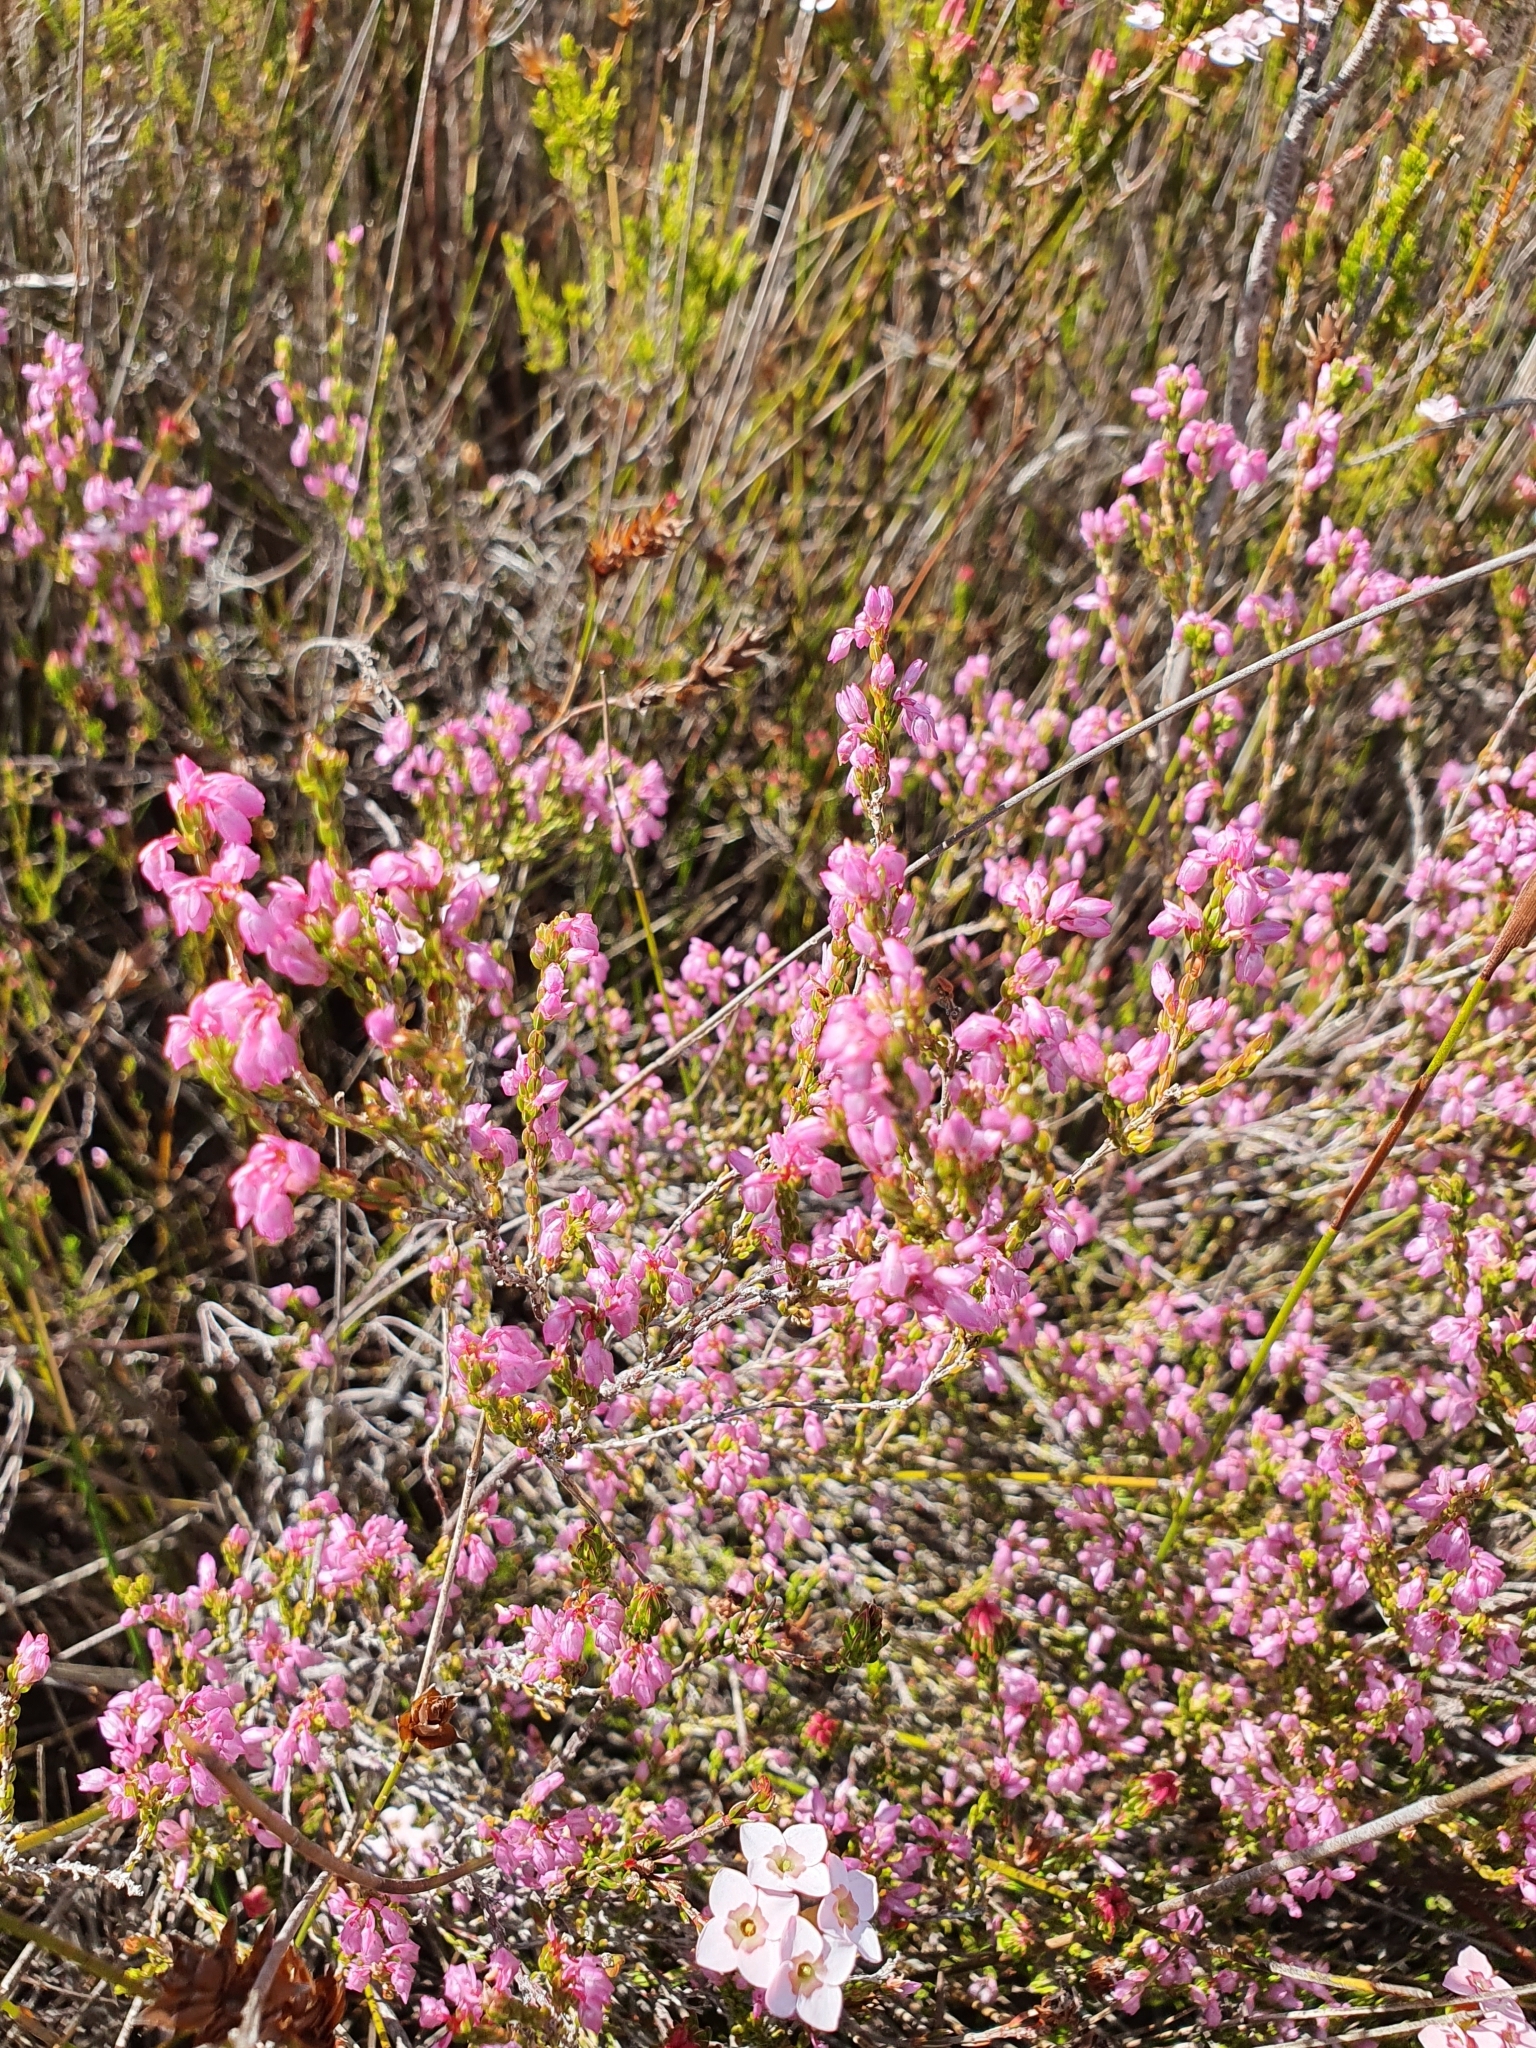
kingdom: Plantae
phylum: Tracheophyta
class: Magnoliopsida
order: Ericales
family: Ericaceae
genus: Erica
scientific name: Erica gnaphaloides
